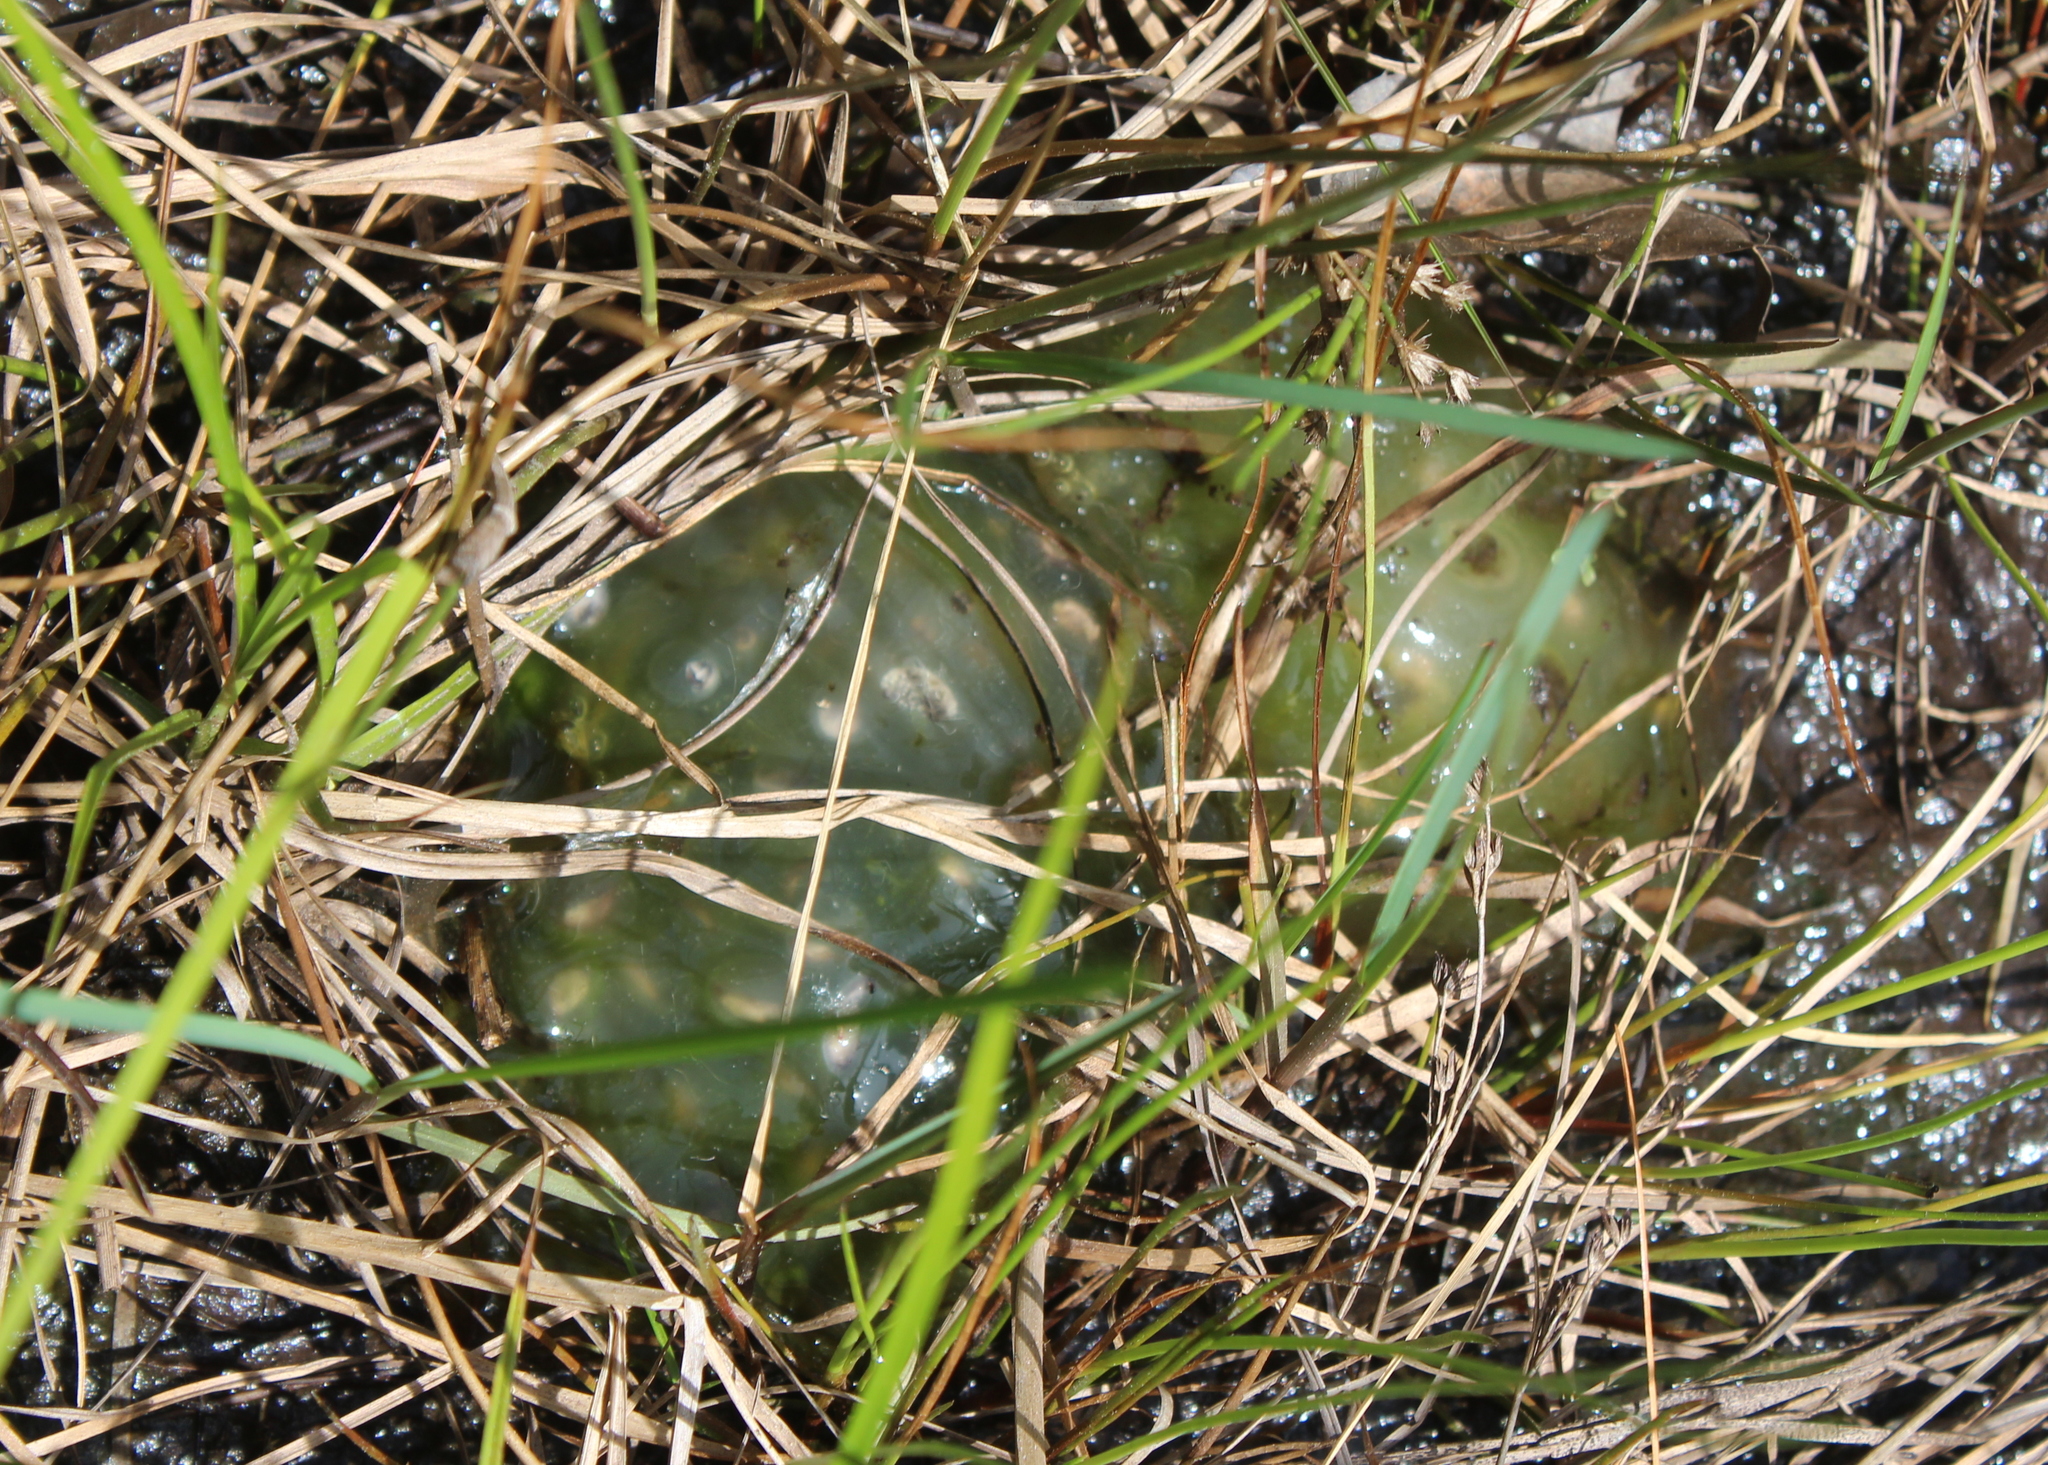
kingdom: Animalia
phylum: Chordata
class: Amphibia
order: Caudata
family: Ambystomatidae
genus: Ambystoma
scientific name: Ambystoma maculatum
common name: Spotted salamander
